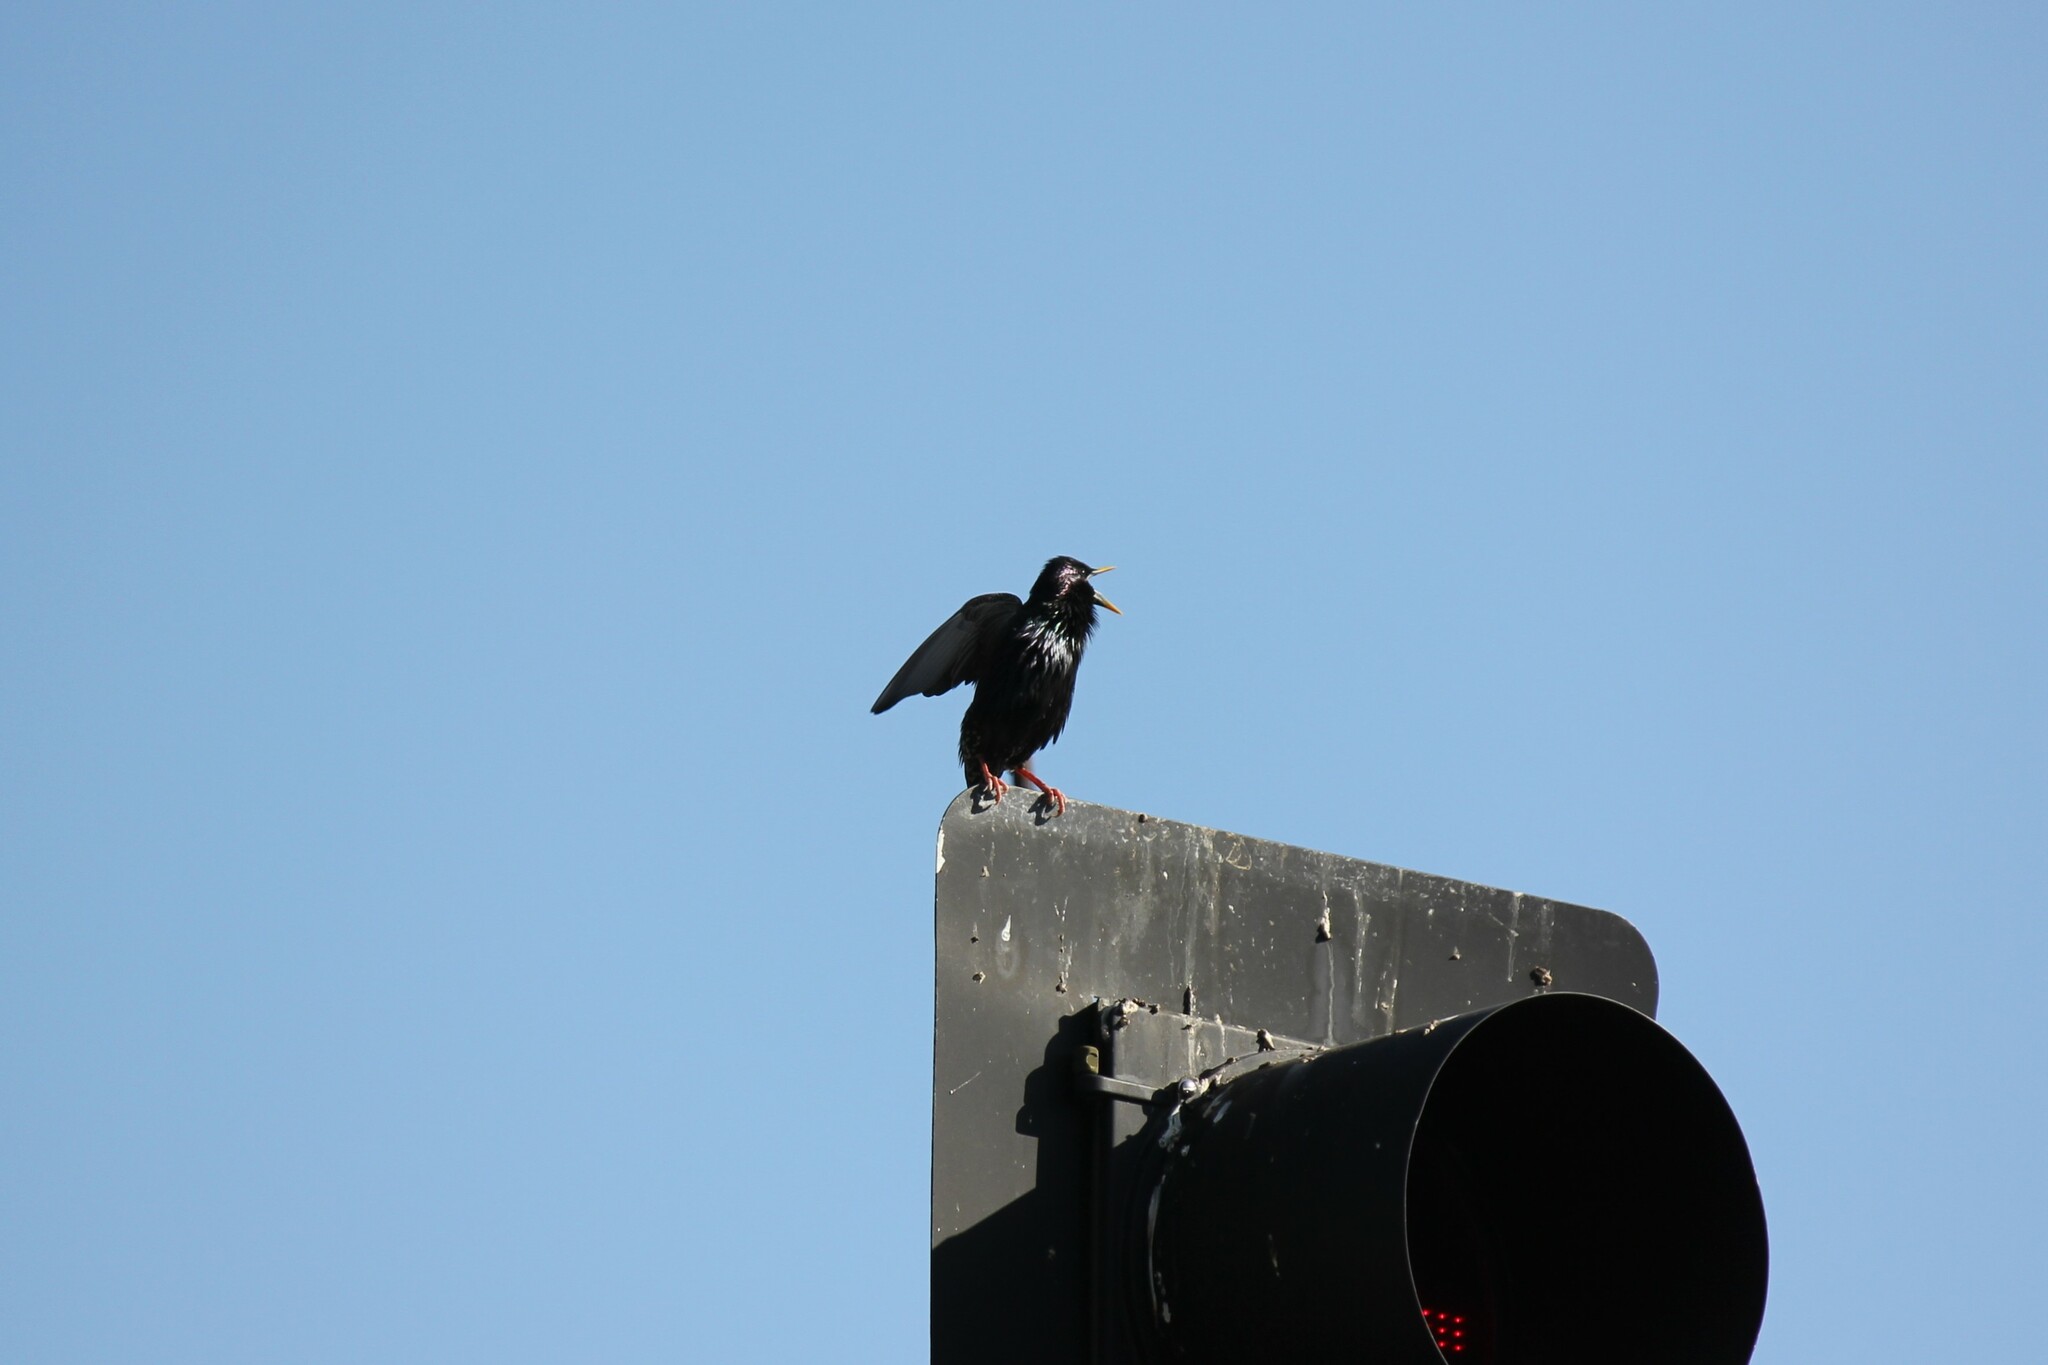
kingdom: Animalia
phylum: Chordata
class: Aves
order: Passeriformes
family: Sturnidae
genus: Sturnus
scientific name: Sturnus vulgaris
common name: Common starling
